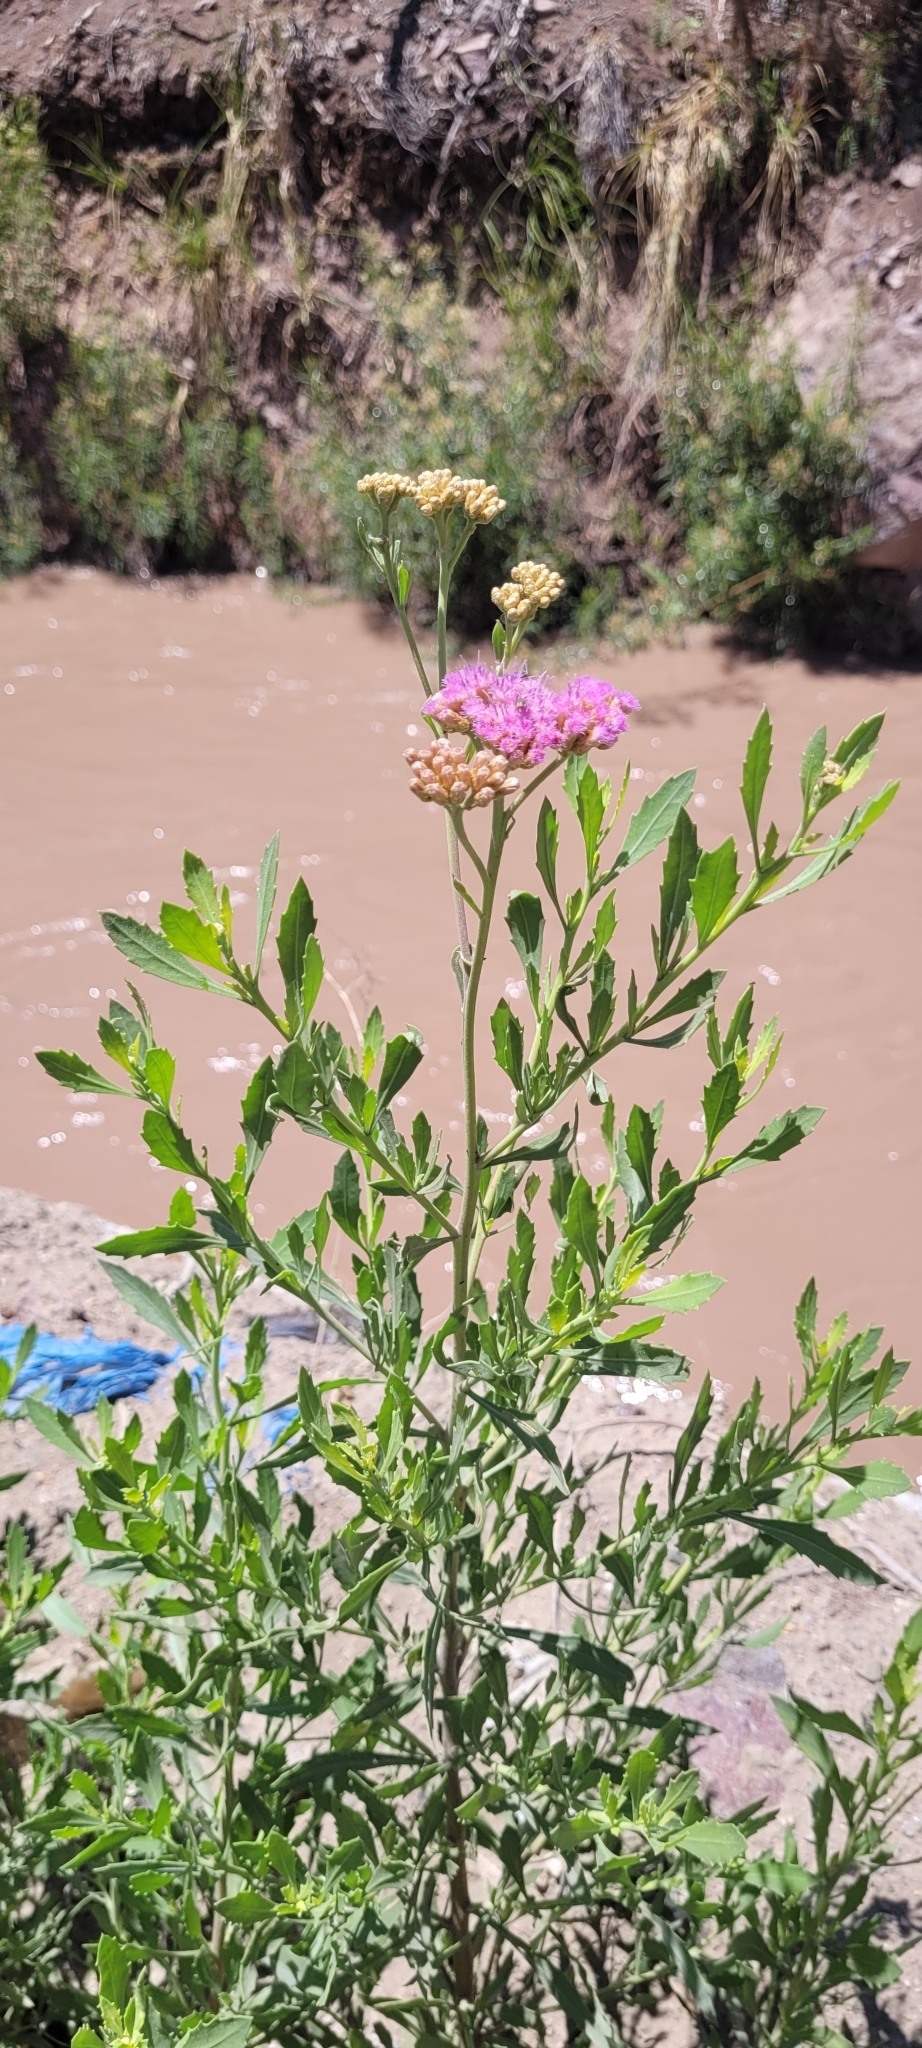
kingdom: Plantae
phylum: Tracheophyta
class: Magnoliopsida
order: Asterales
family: Asteraceae
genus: Tessaria
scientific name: Tessaria absinthioides
